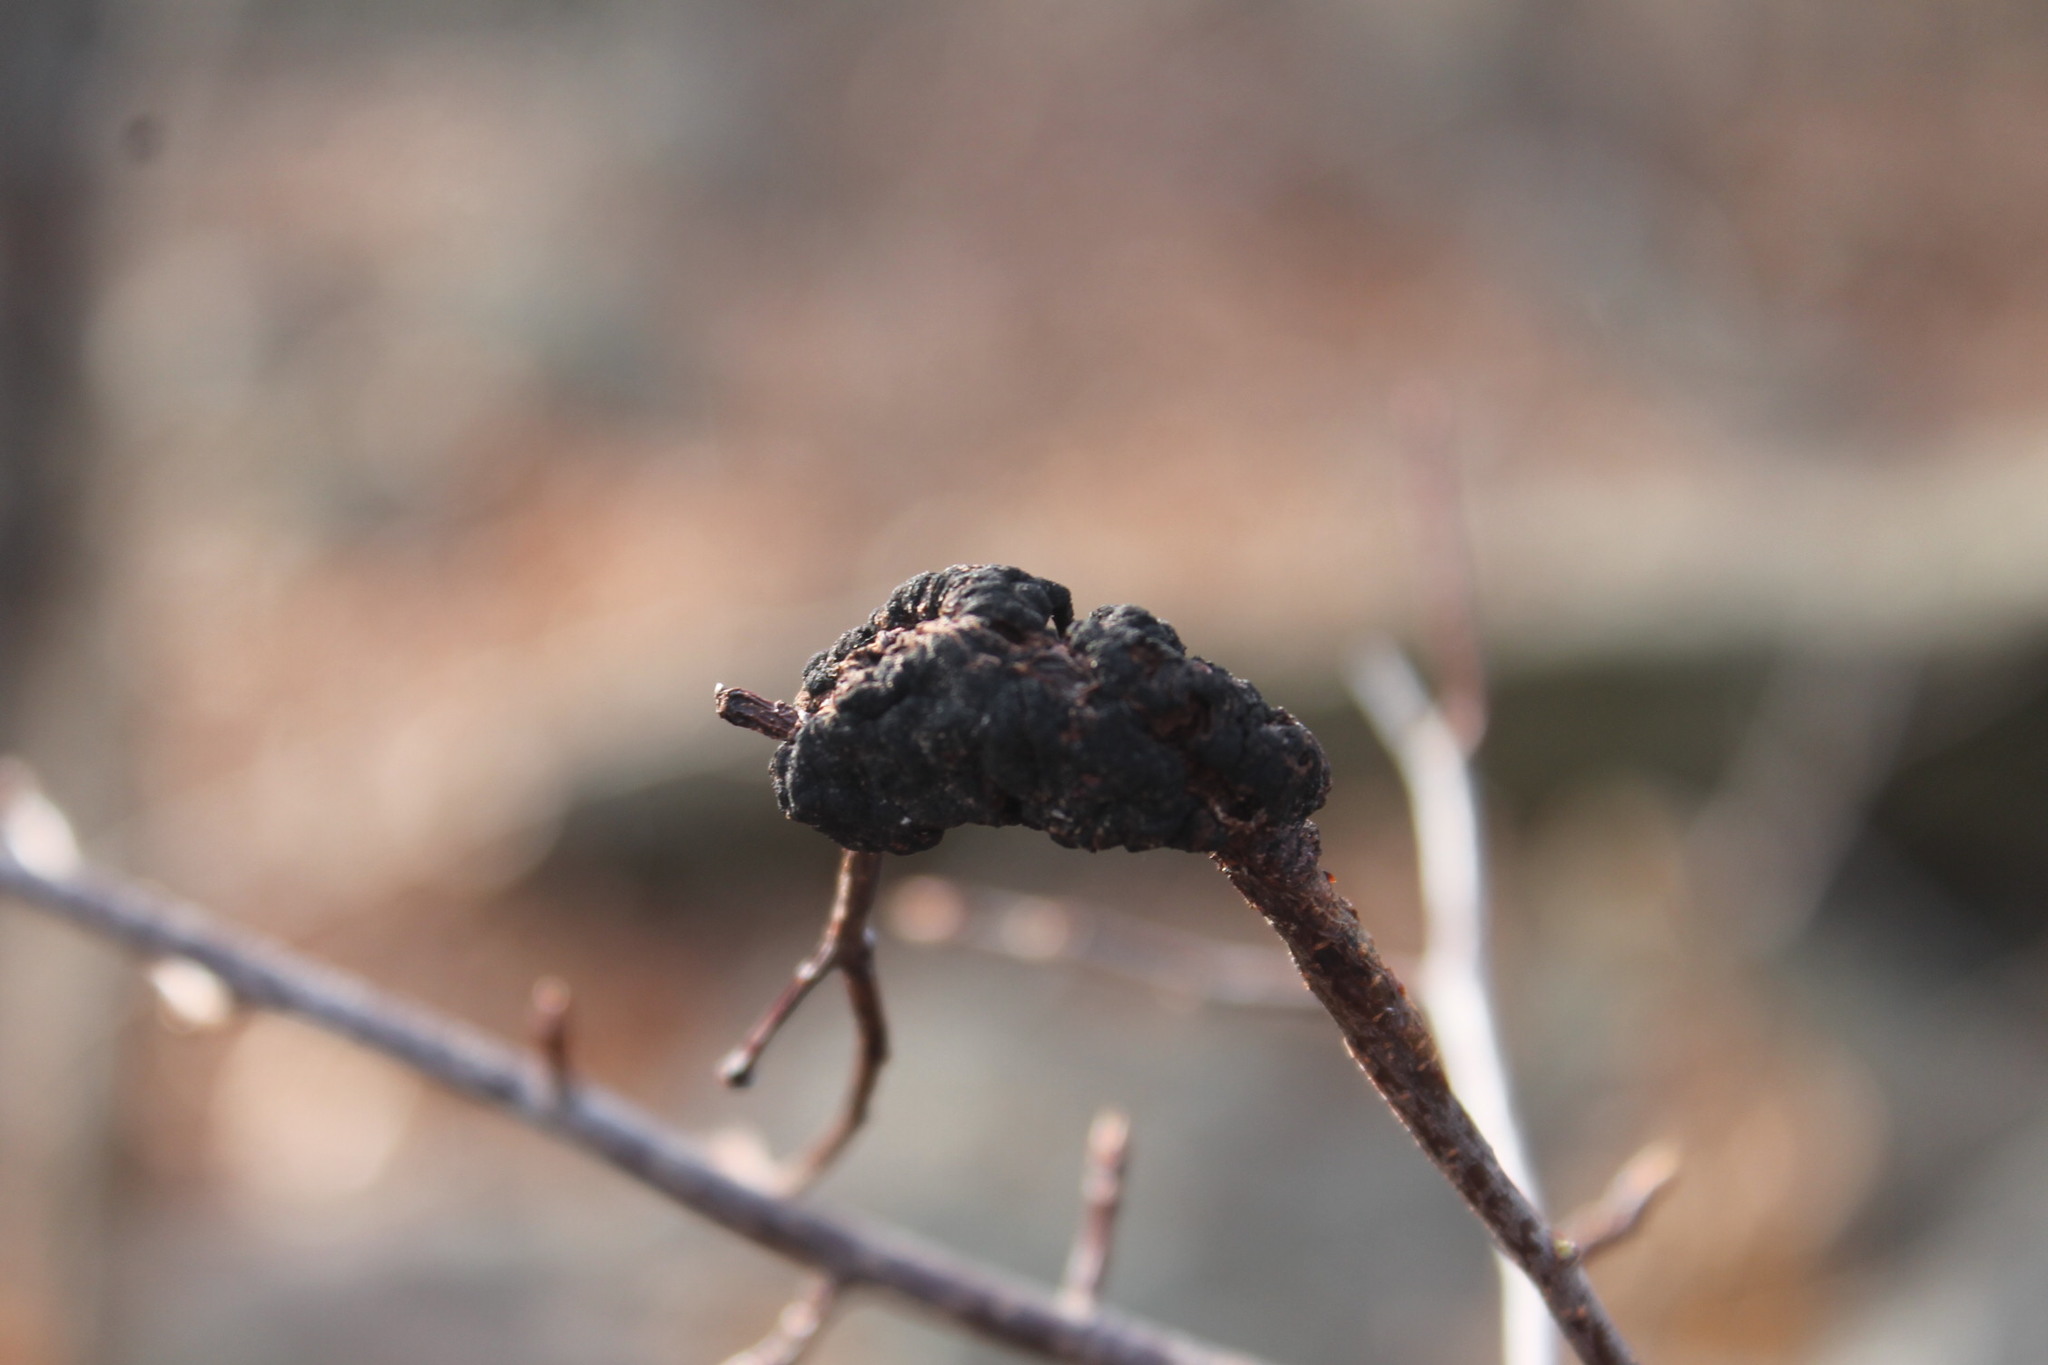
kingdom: Fungi
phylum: Ascomycota
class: Dothideomycetes
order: Venturiales
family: Venturiaceae
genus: Apiosporina
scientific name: Apiosporina morbosa
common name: Black knot
